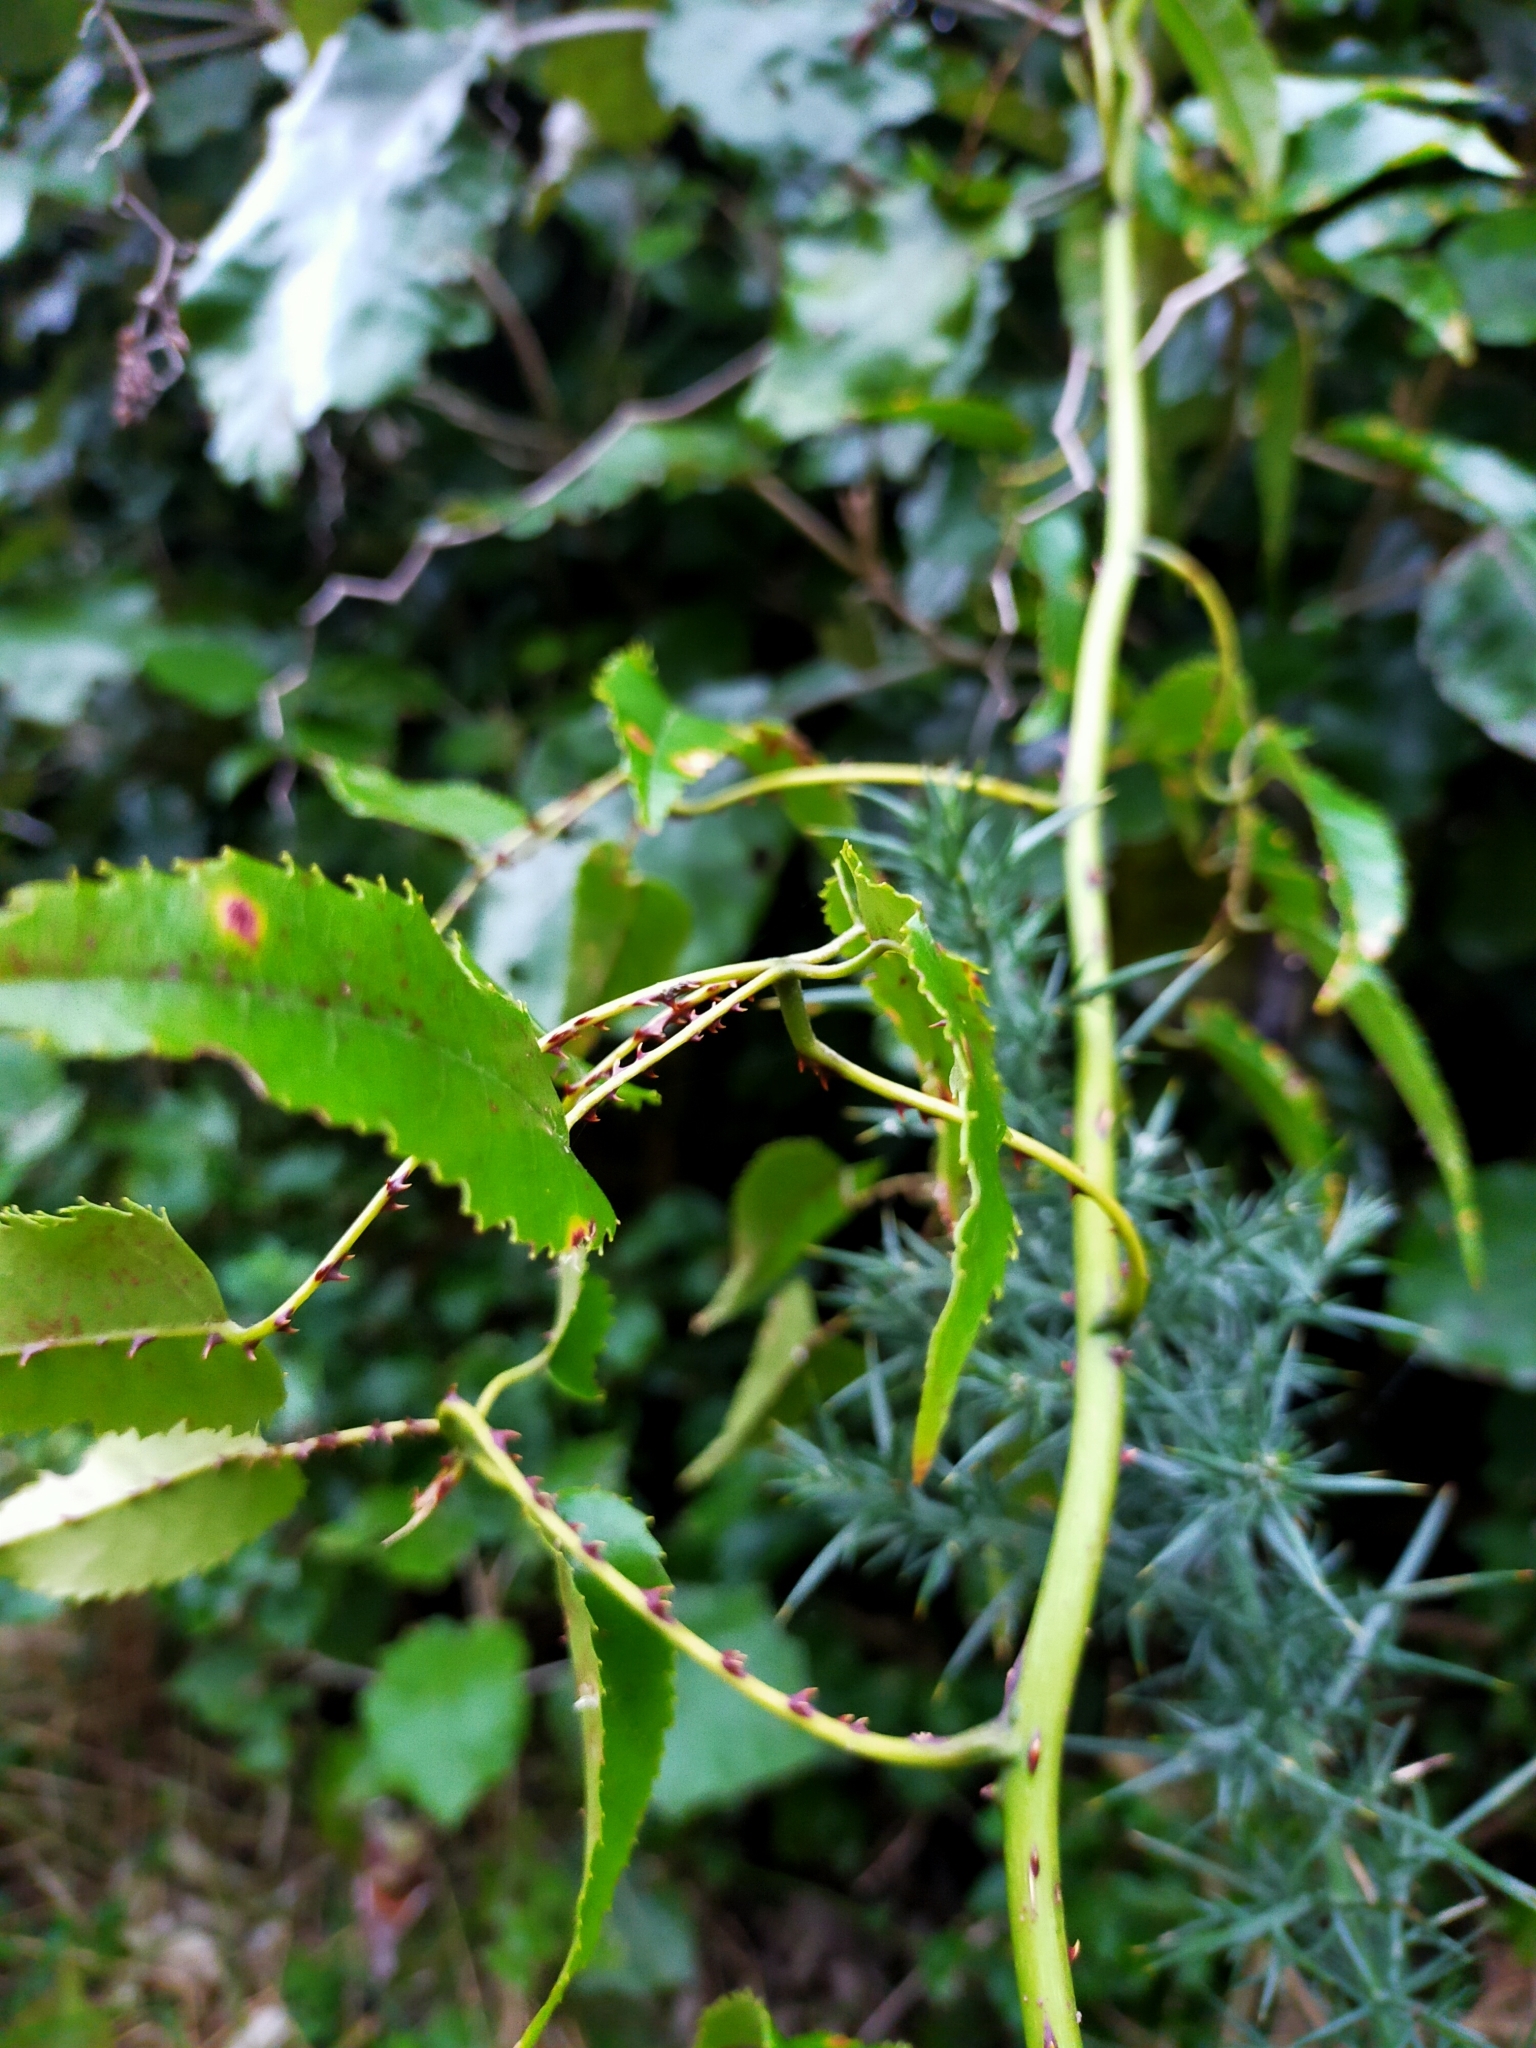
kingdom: Plantae
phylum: Tracheophyta
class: Magnoliopsida
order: Rosales
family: Rosaceae
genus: Rubus
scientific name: Rubus cissoides
